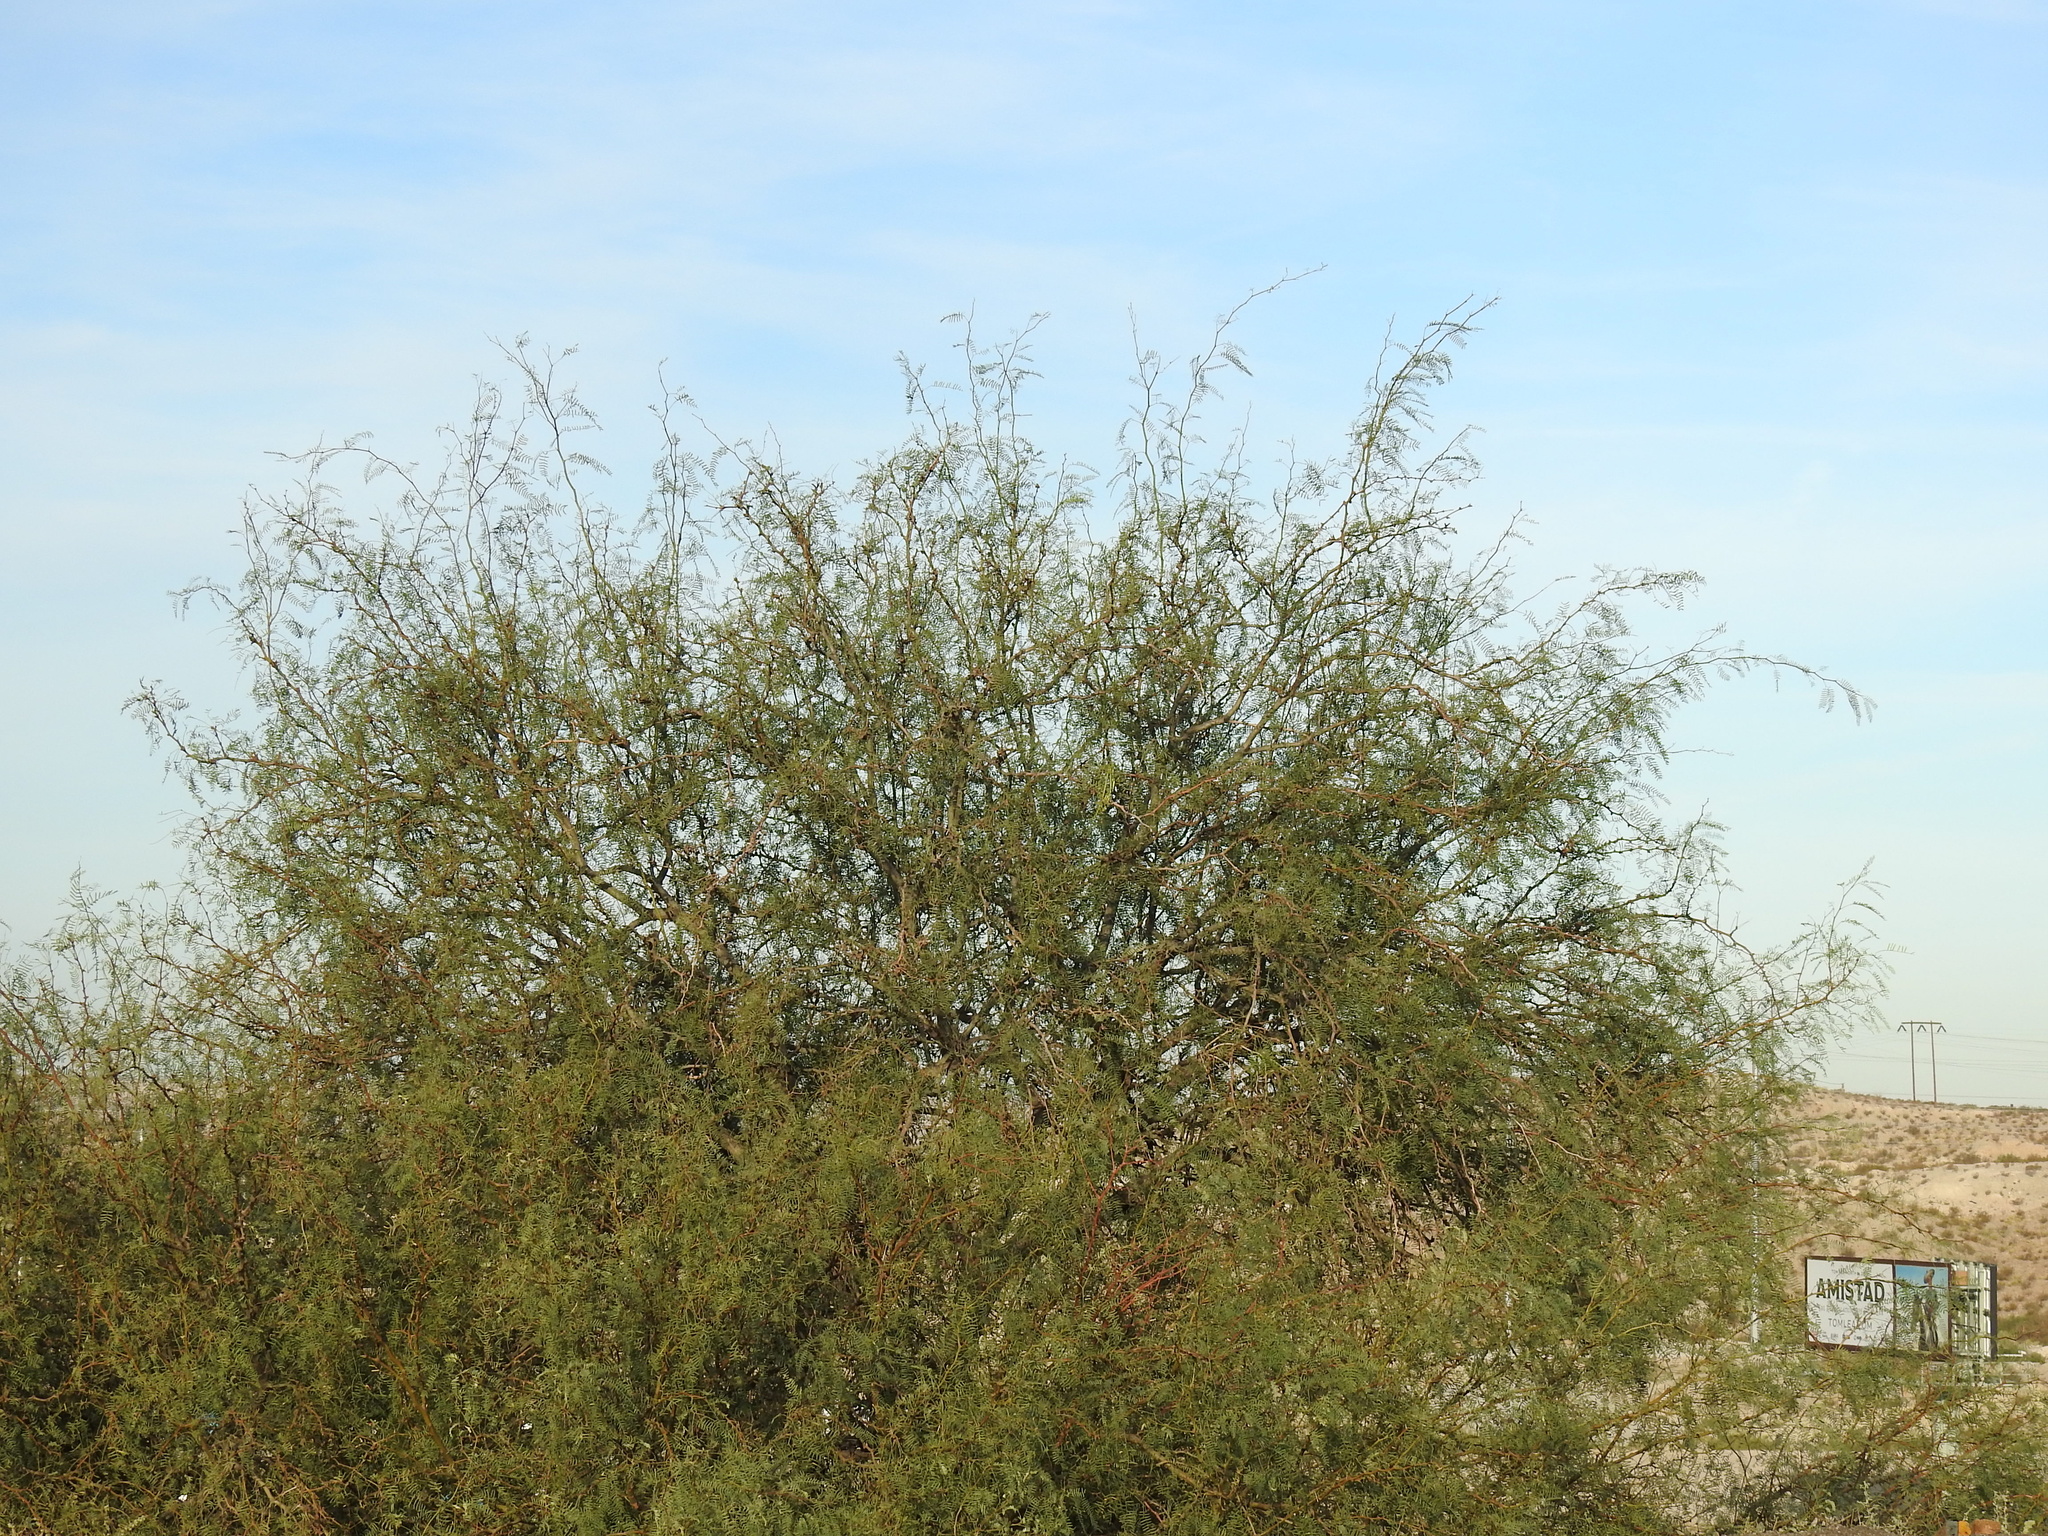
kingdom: Plantae
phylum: Tracheophyta
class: Magnoliopsida
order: Fabales
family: Fabaceae
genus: Prosopis
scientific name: Prosopis glandulosa
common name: Honey mesquite
